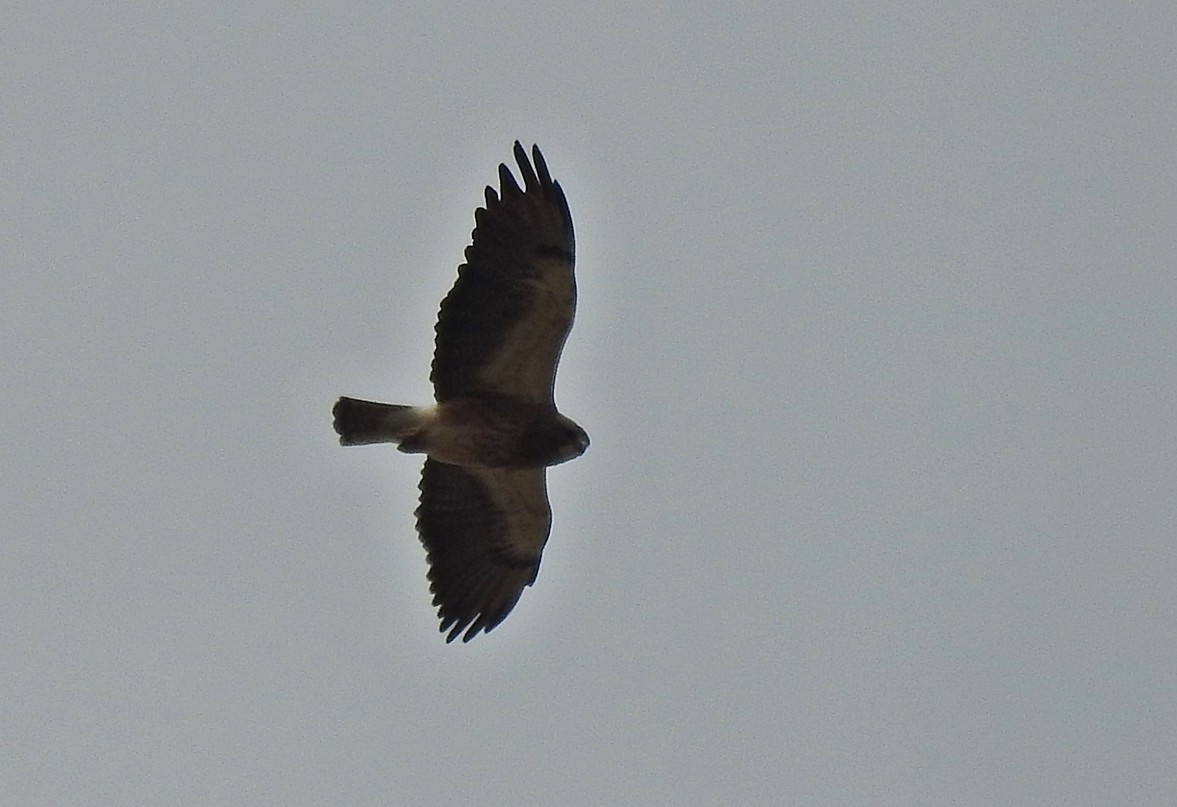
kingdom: Animalia
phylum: Chordata
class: Aves
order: Accipitriformes
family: Accipitridae
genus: Buteo
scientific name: Buteo swainsoni
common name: Swainson's hawk
